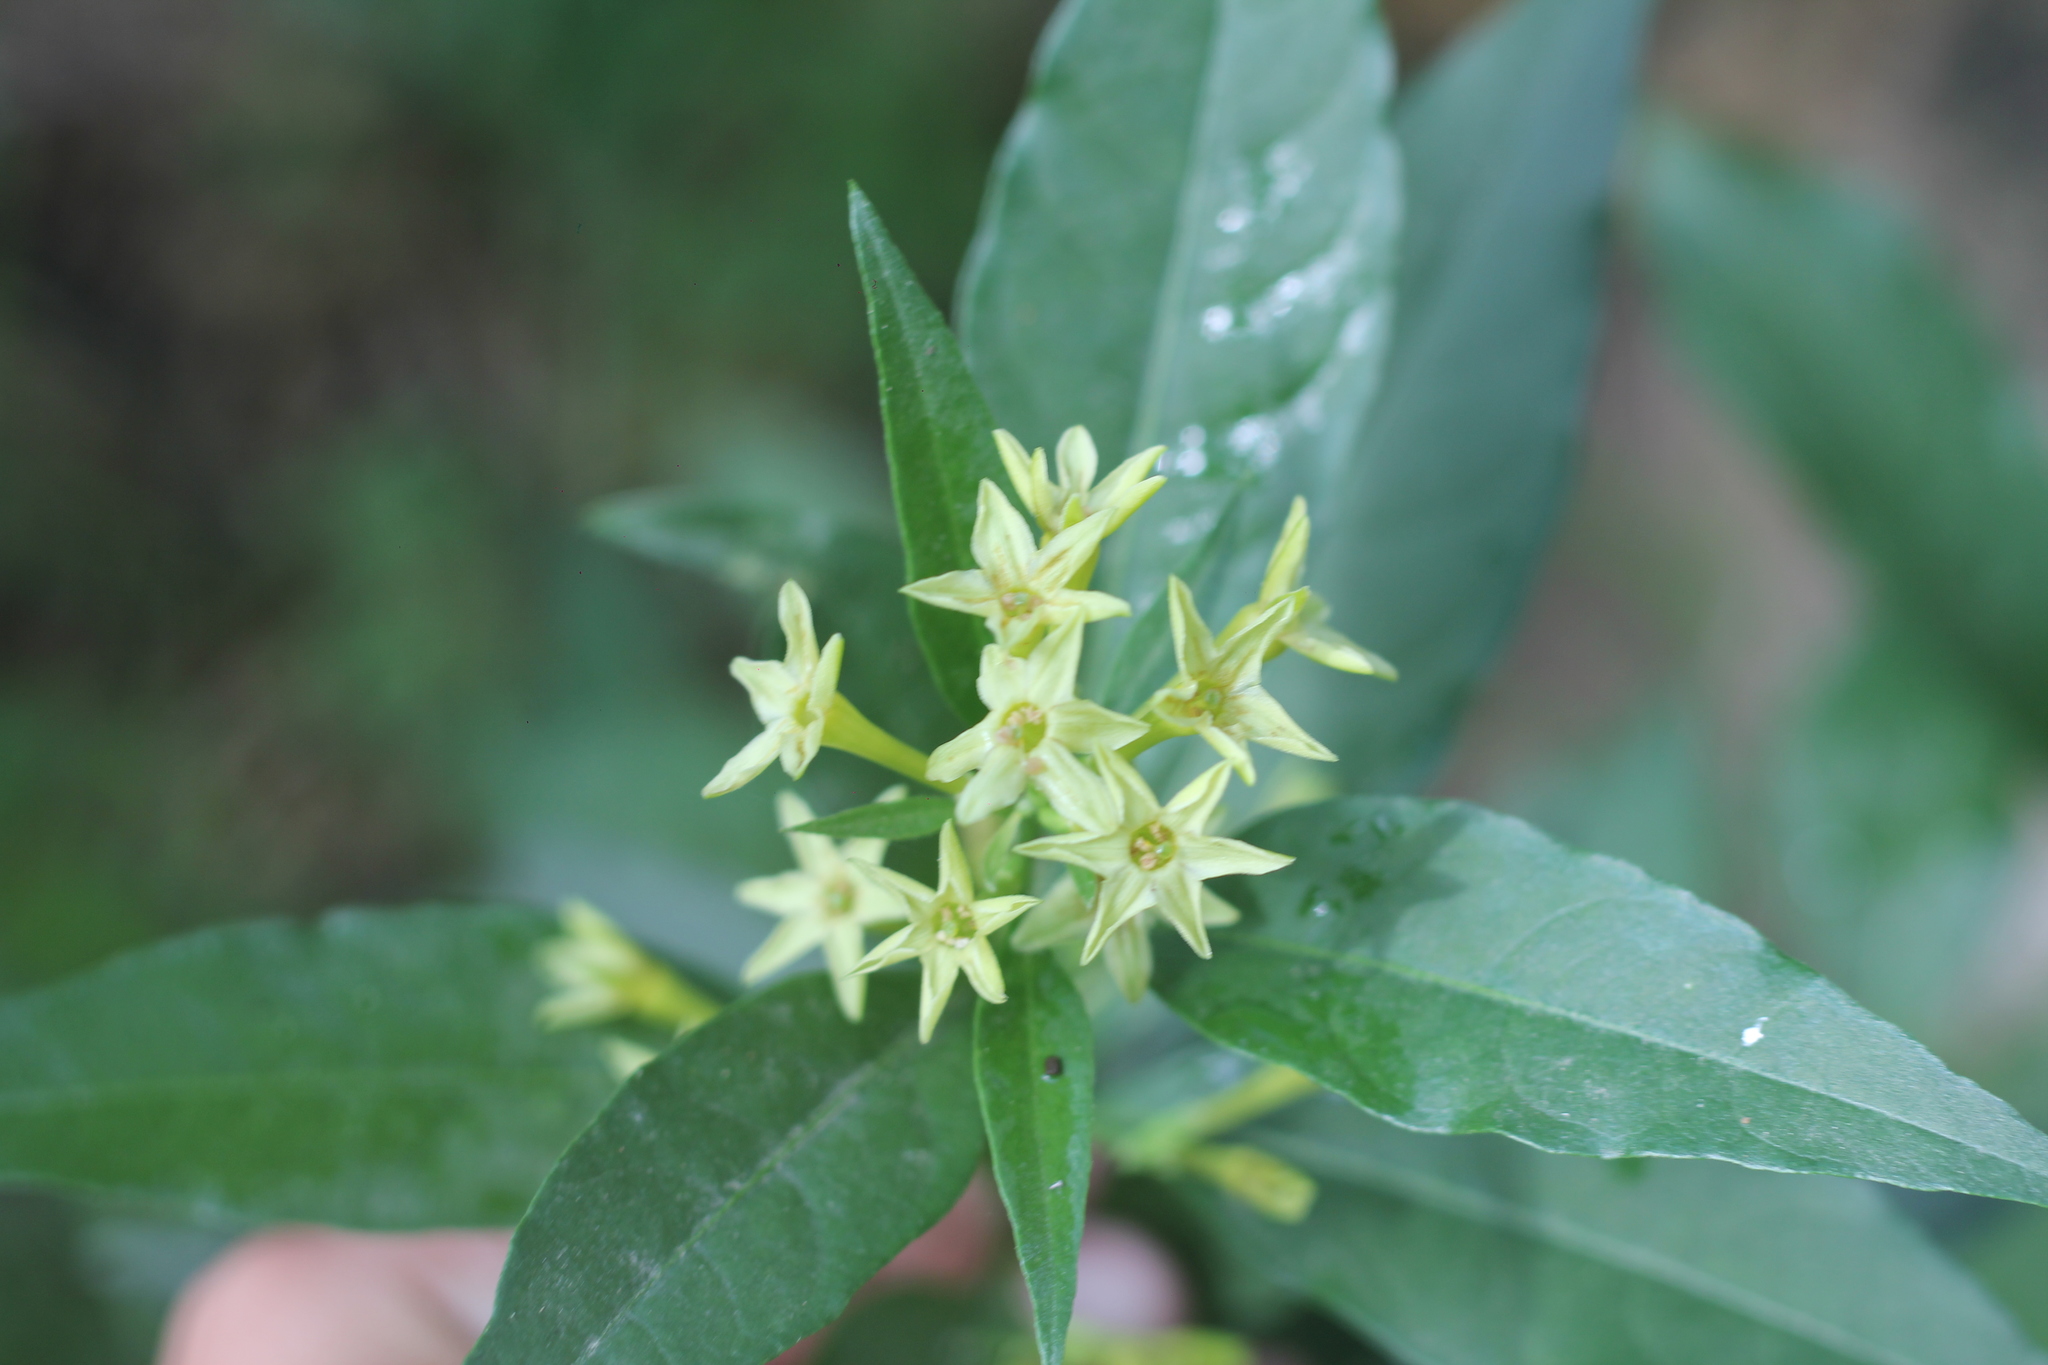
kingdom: Plantae
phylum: Tracheophyta
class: Magnoliopsida
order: Solanales
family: Solanaceae
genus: Cestrum
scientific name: Cestrum parqui
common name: Chilean cestrum
